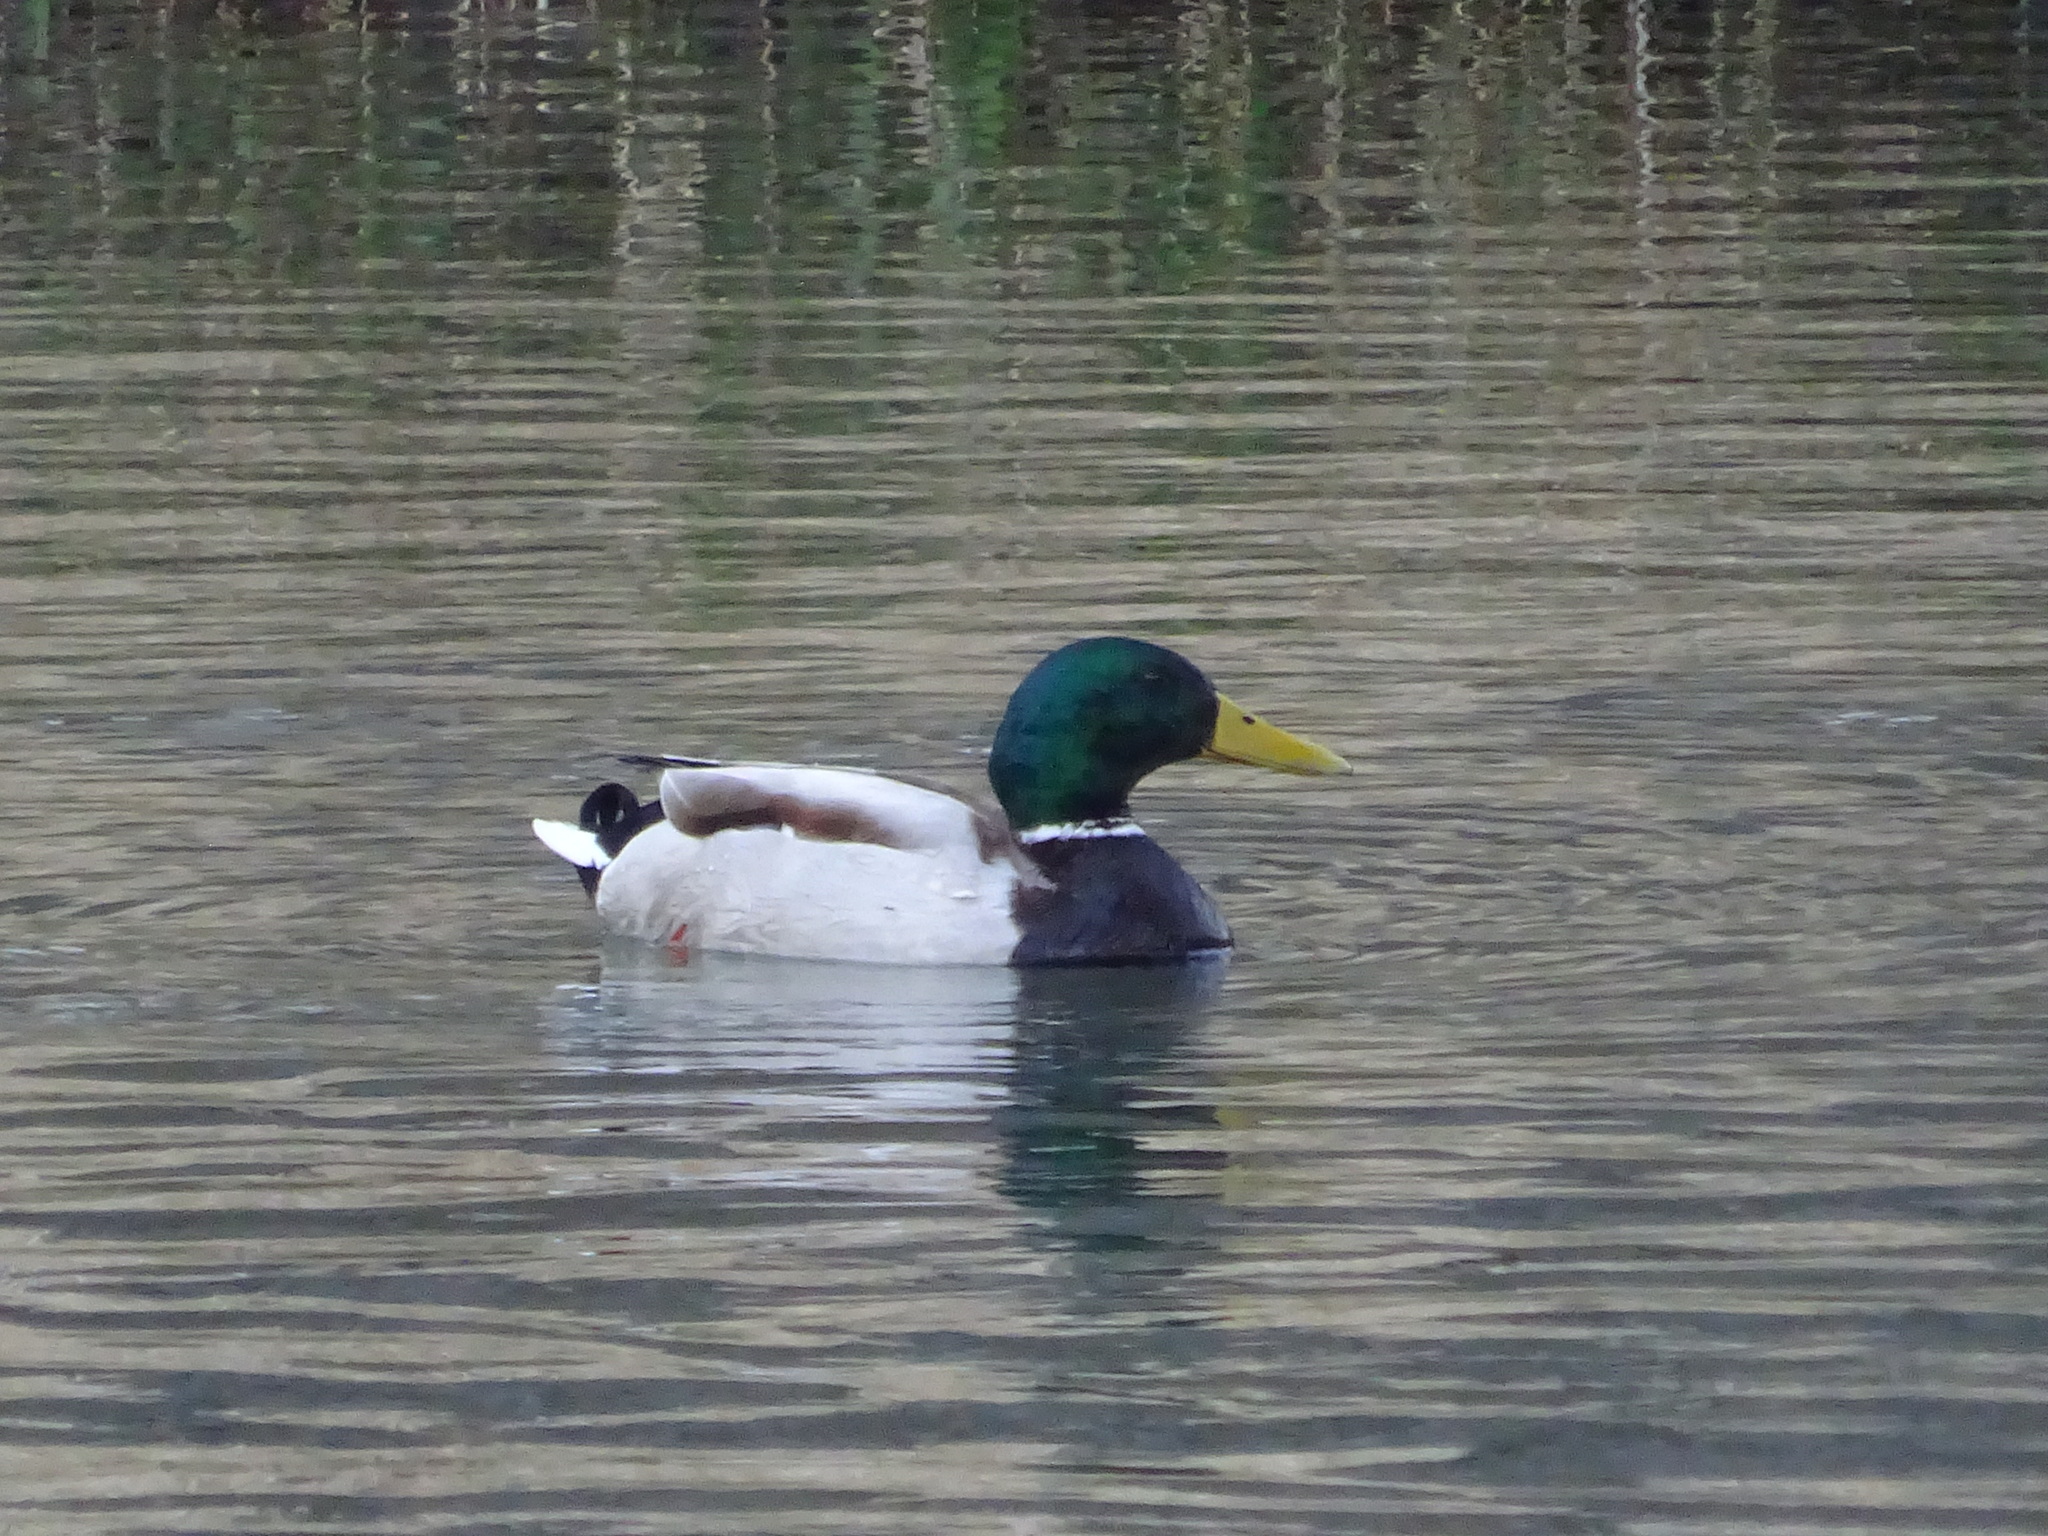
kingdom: Animalia
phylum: Chordata
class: Aves
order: Anseriformes
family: Anatidae
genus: Anas
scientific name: Anas platyrhynchos
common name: Mallard
